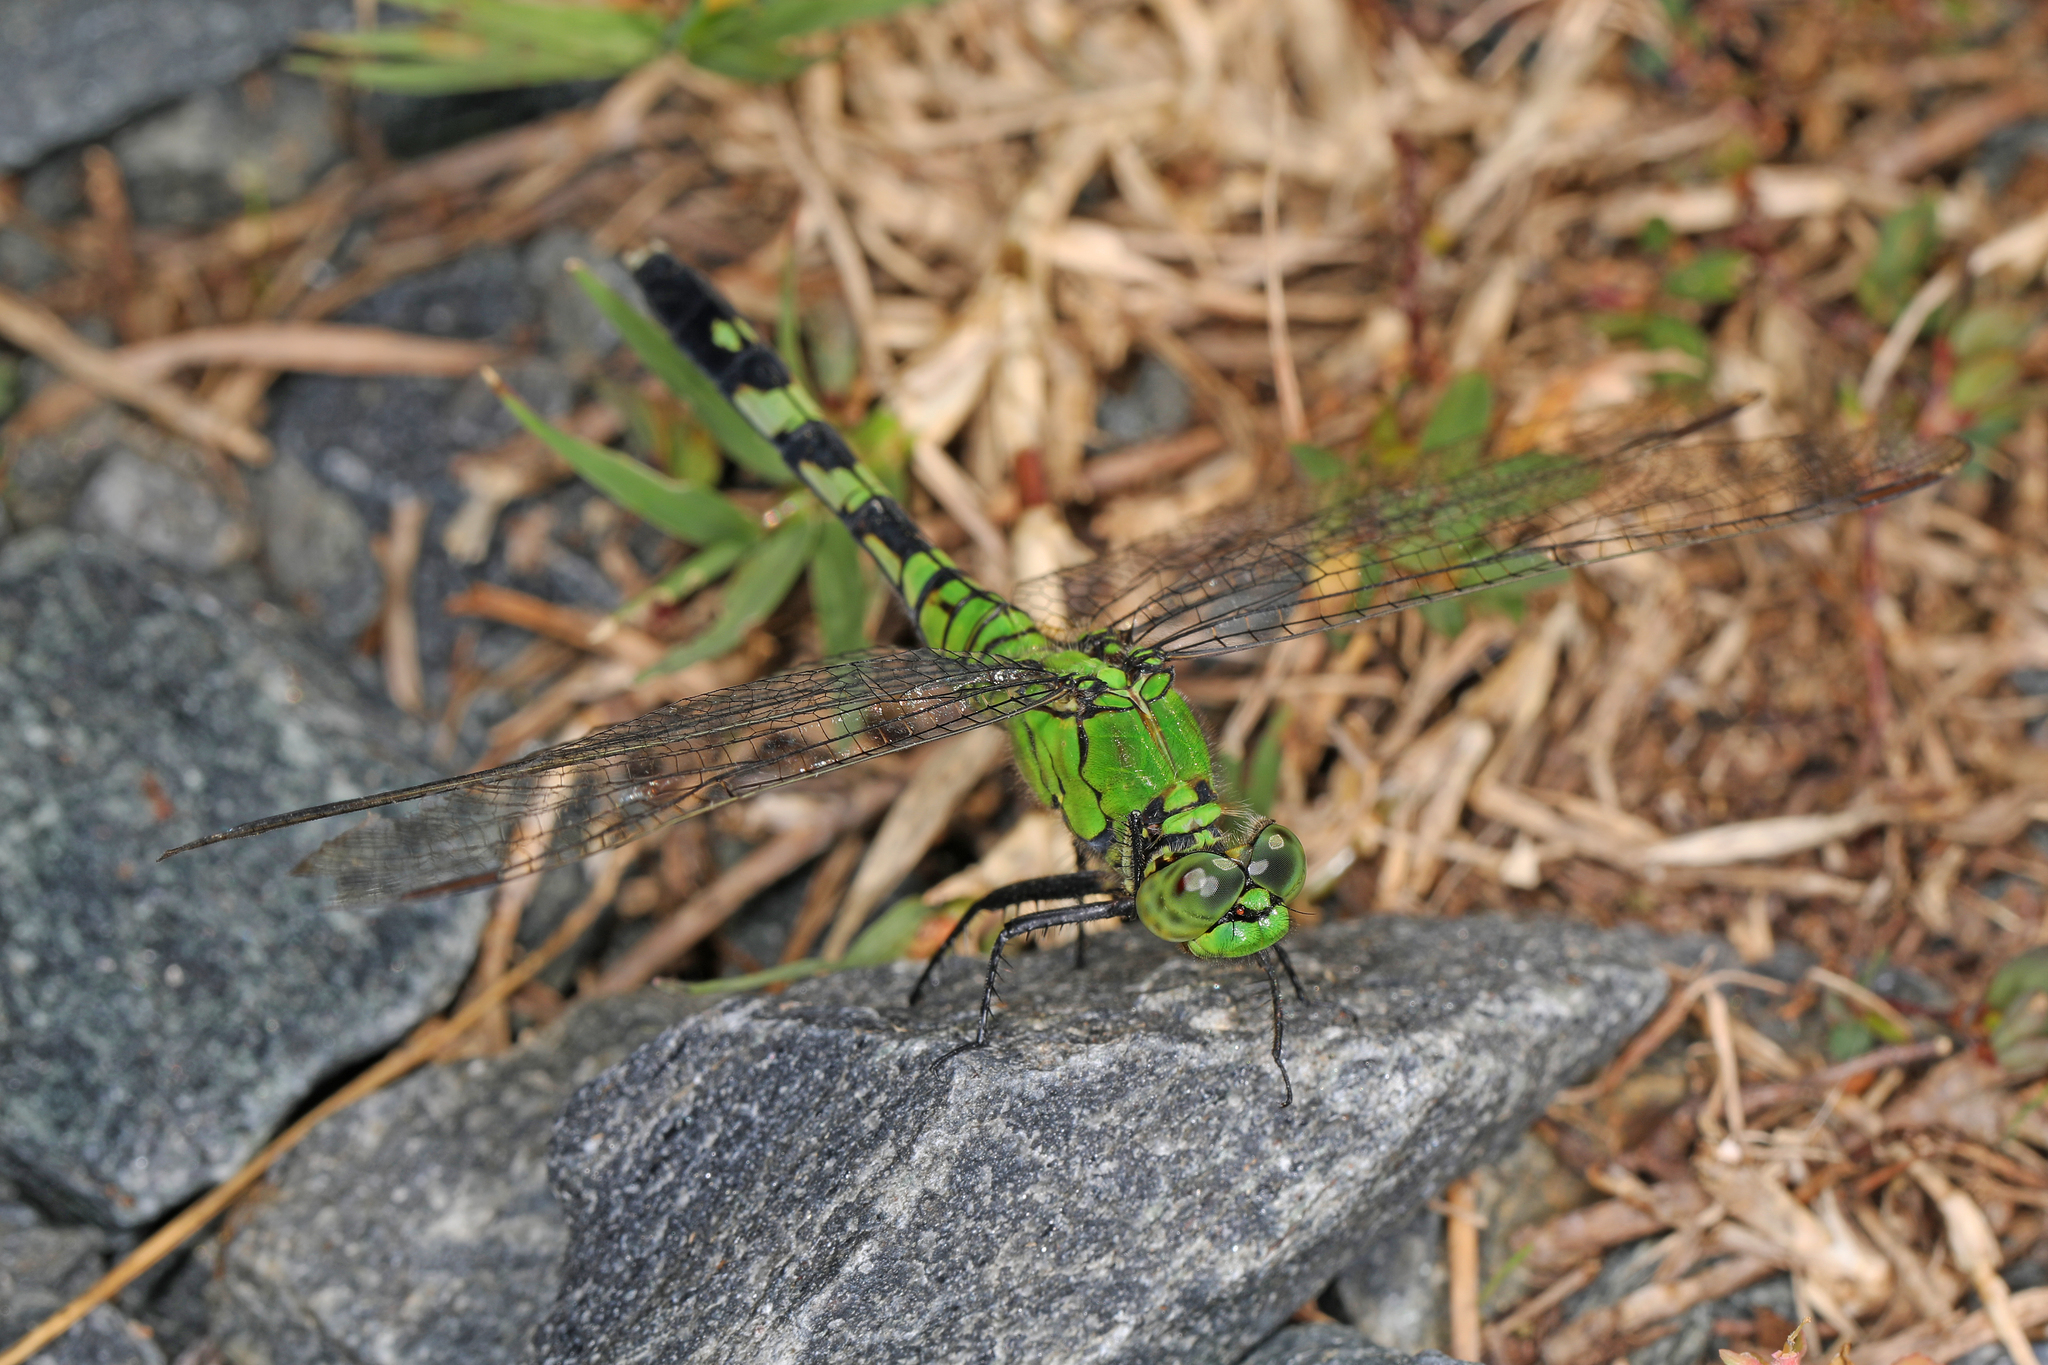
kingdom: Animalia
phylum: Arthropoda
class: Insecta
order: Odonata
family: Libellulidae
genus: Erythemis
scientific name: Erythemis simplicicollis
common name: Eastern pondhawk
